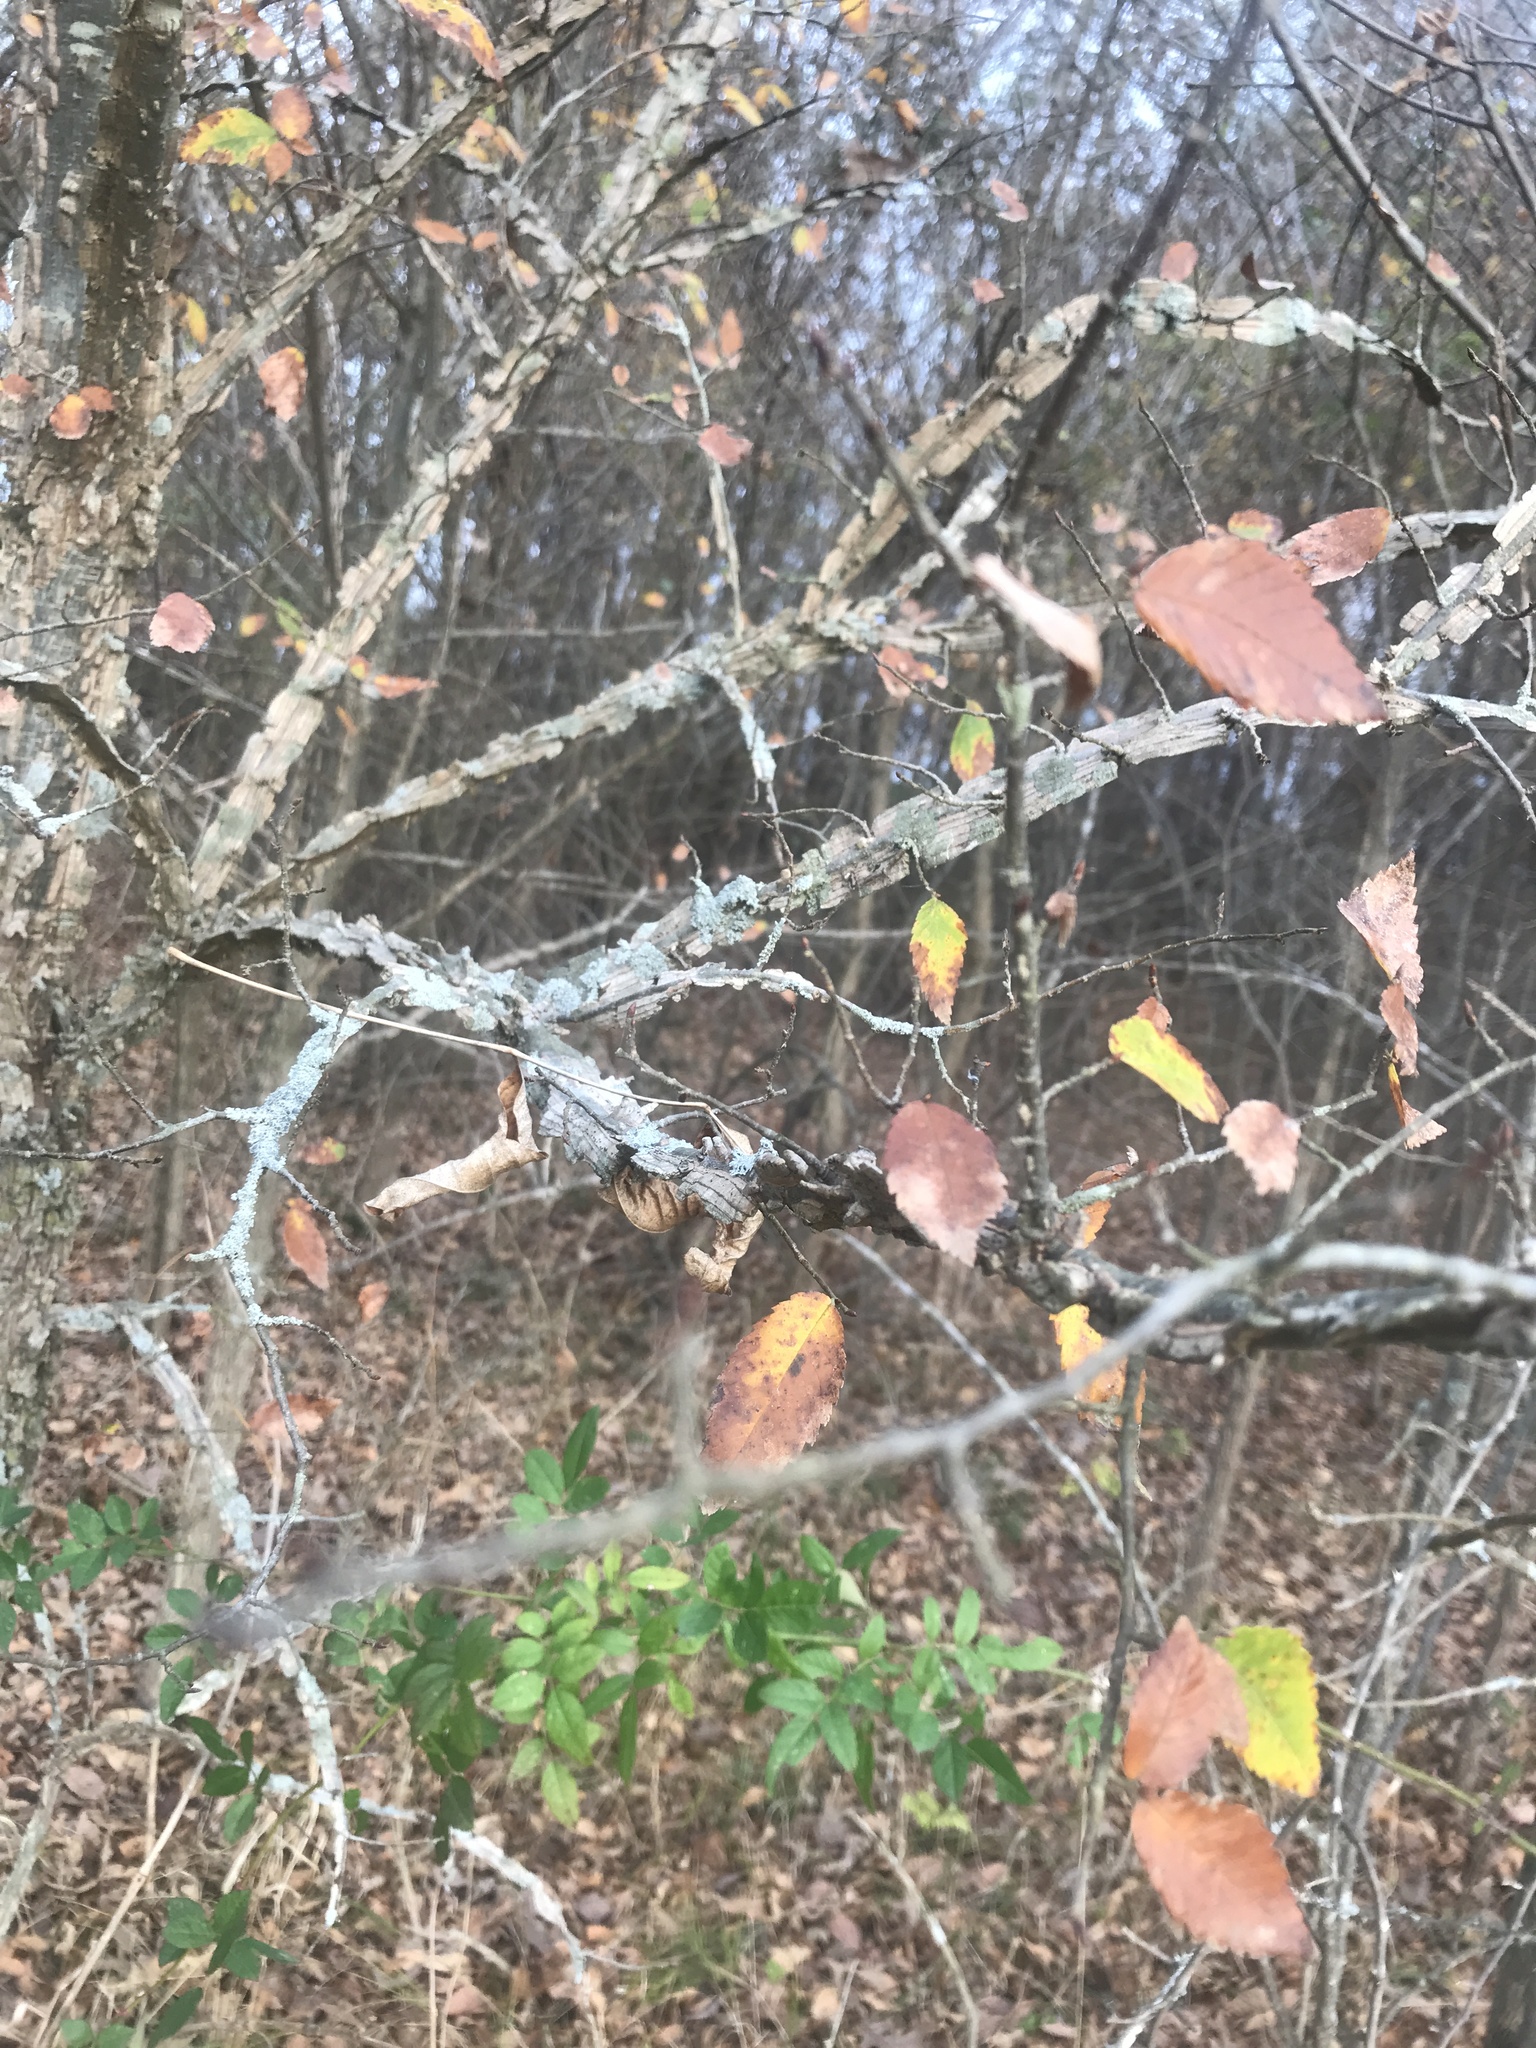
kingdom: Plantae
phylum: Tracheophyta
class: Magnoliopsida
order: Rosales
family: Ulmaceae
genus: Ulmus
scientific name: Ulmus alata
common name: Winged elm
